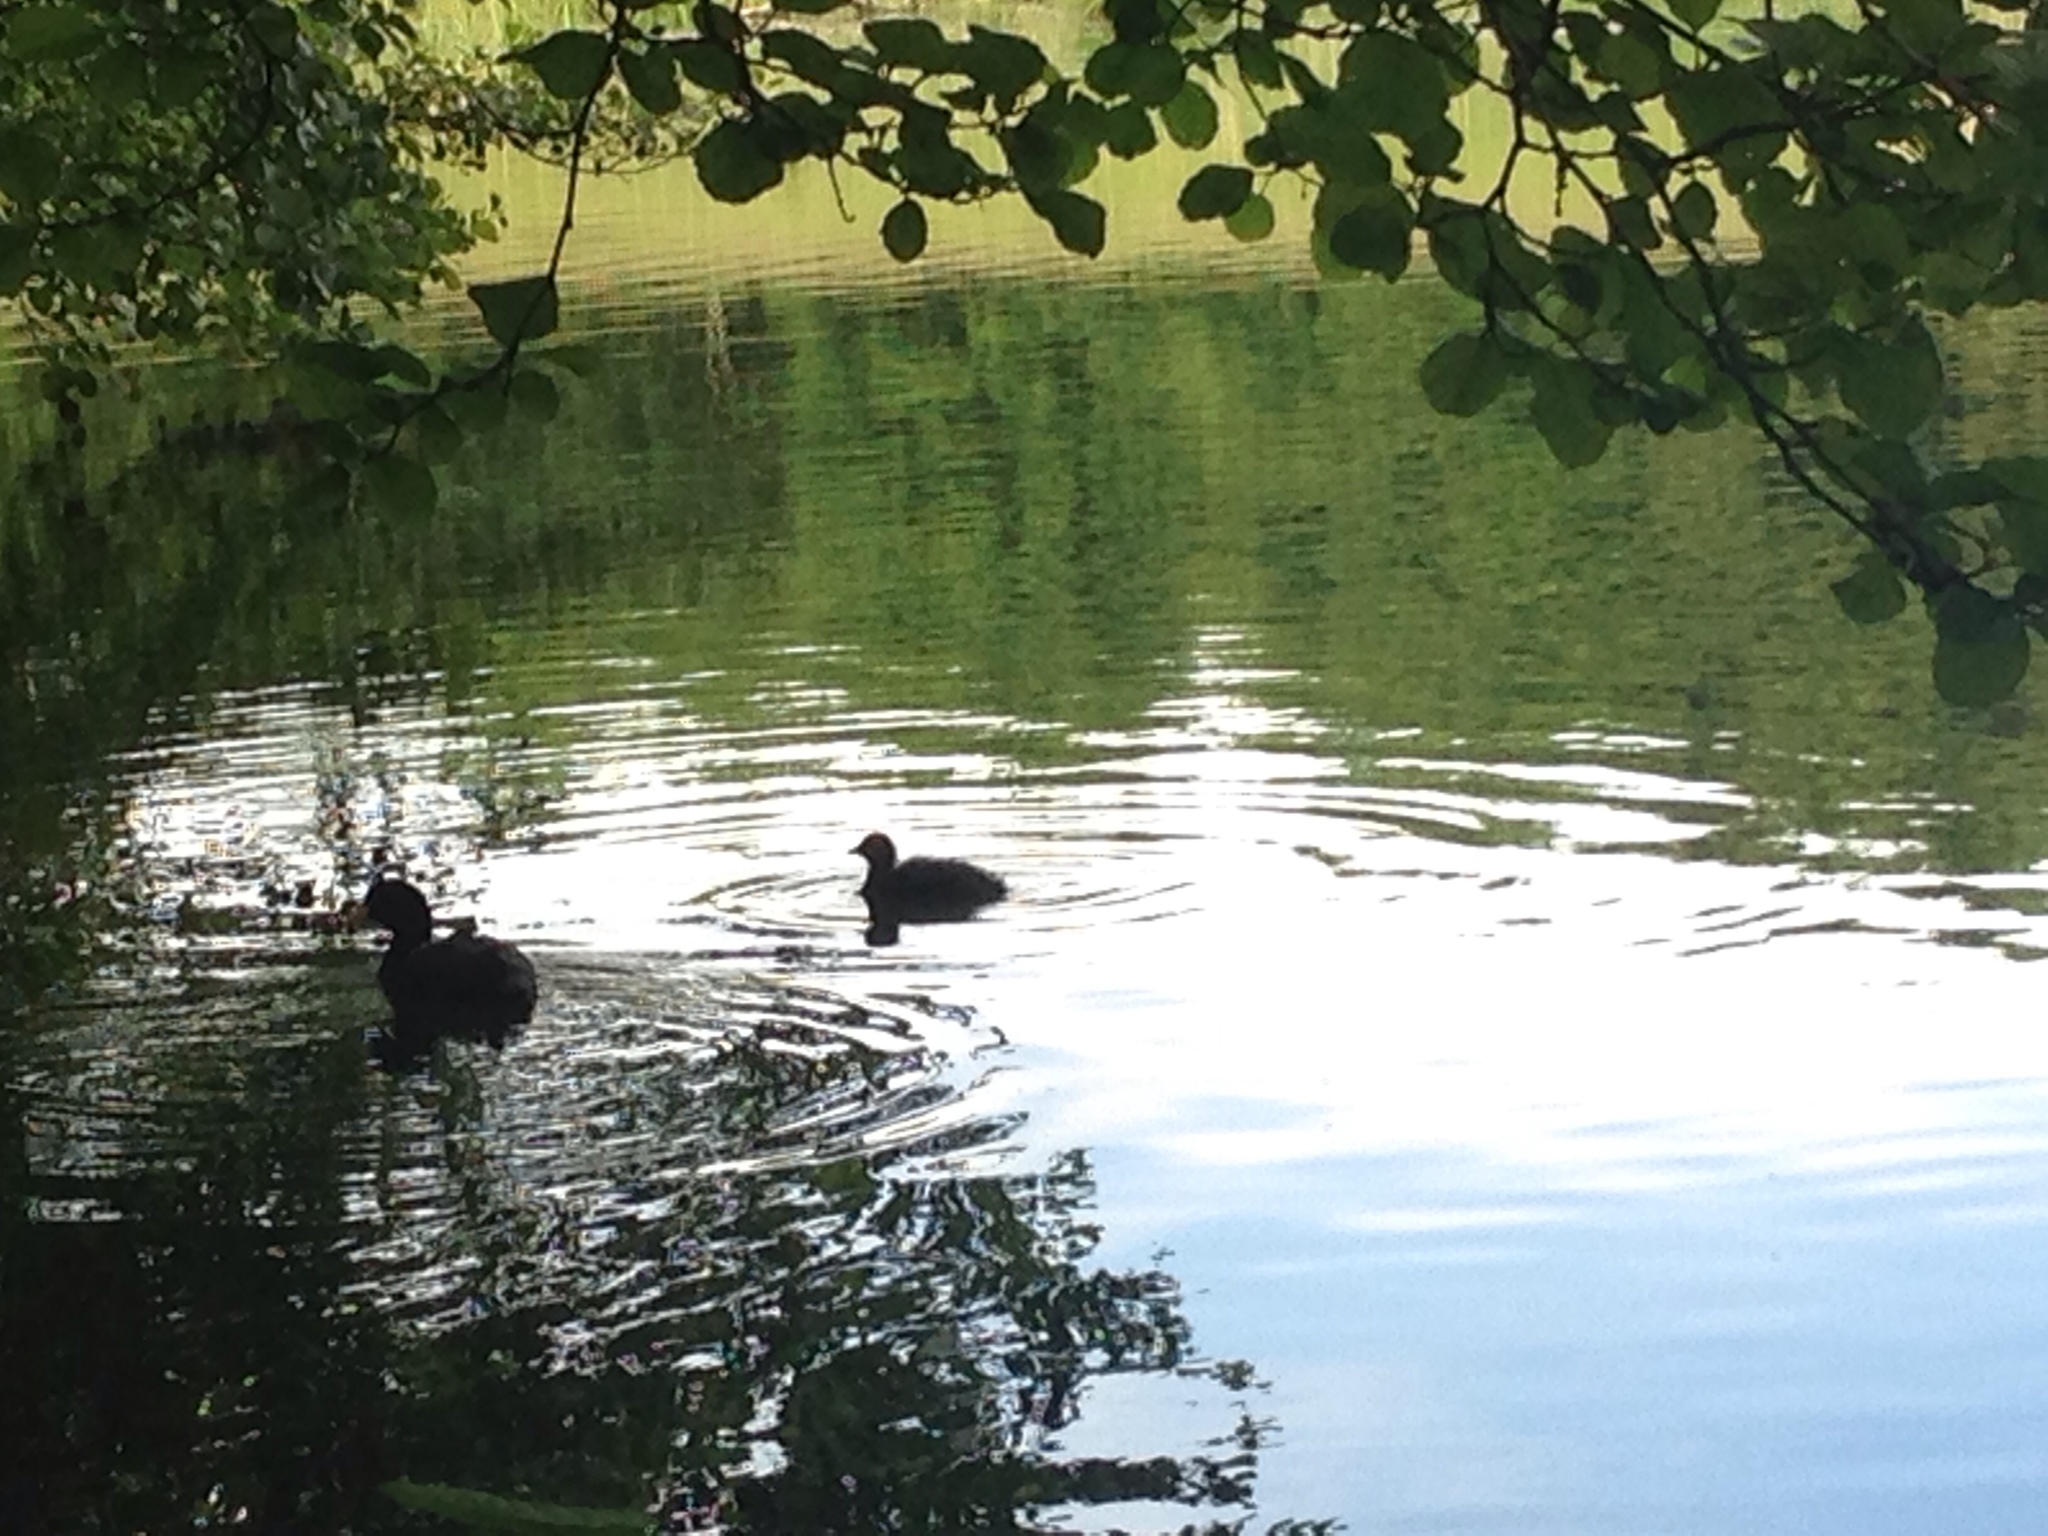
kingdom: Animalia
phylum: Chordata
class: Aves
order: Gruiformes
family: Rallidae
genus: Fulica
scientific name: Fulica atra
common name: Eurasian coot
